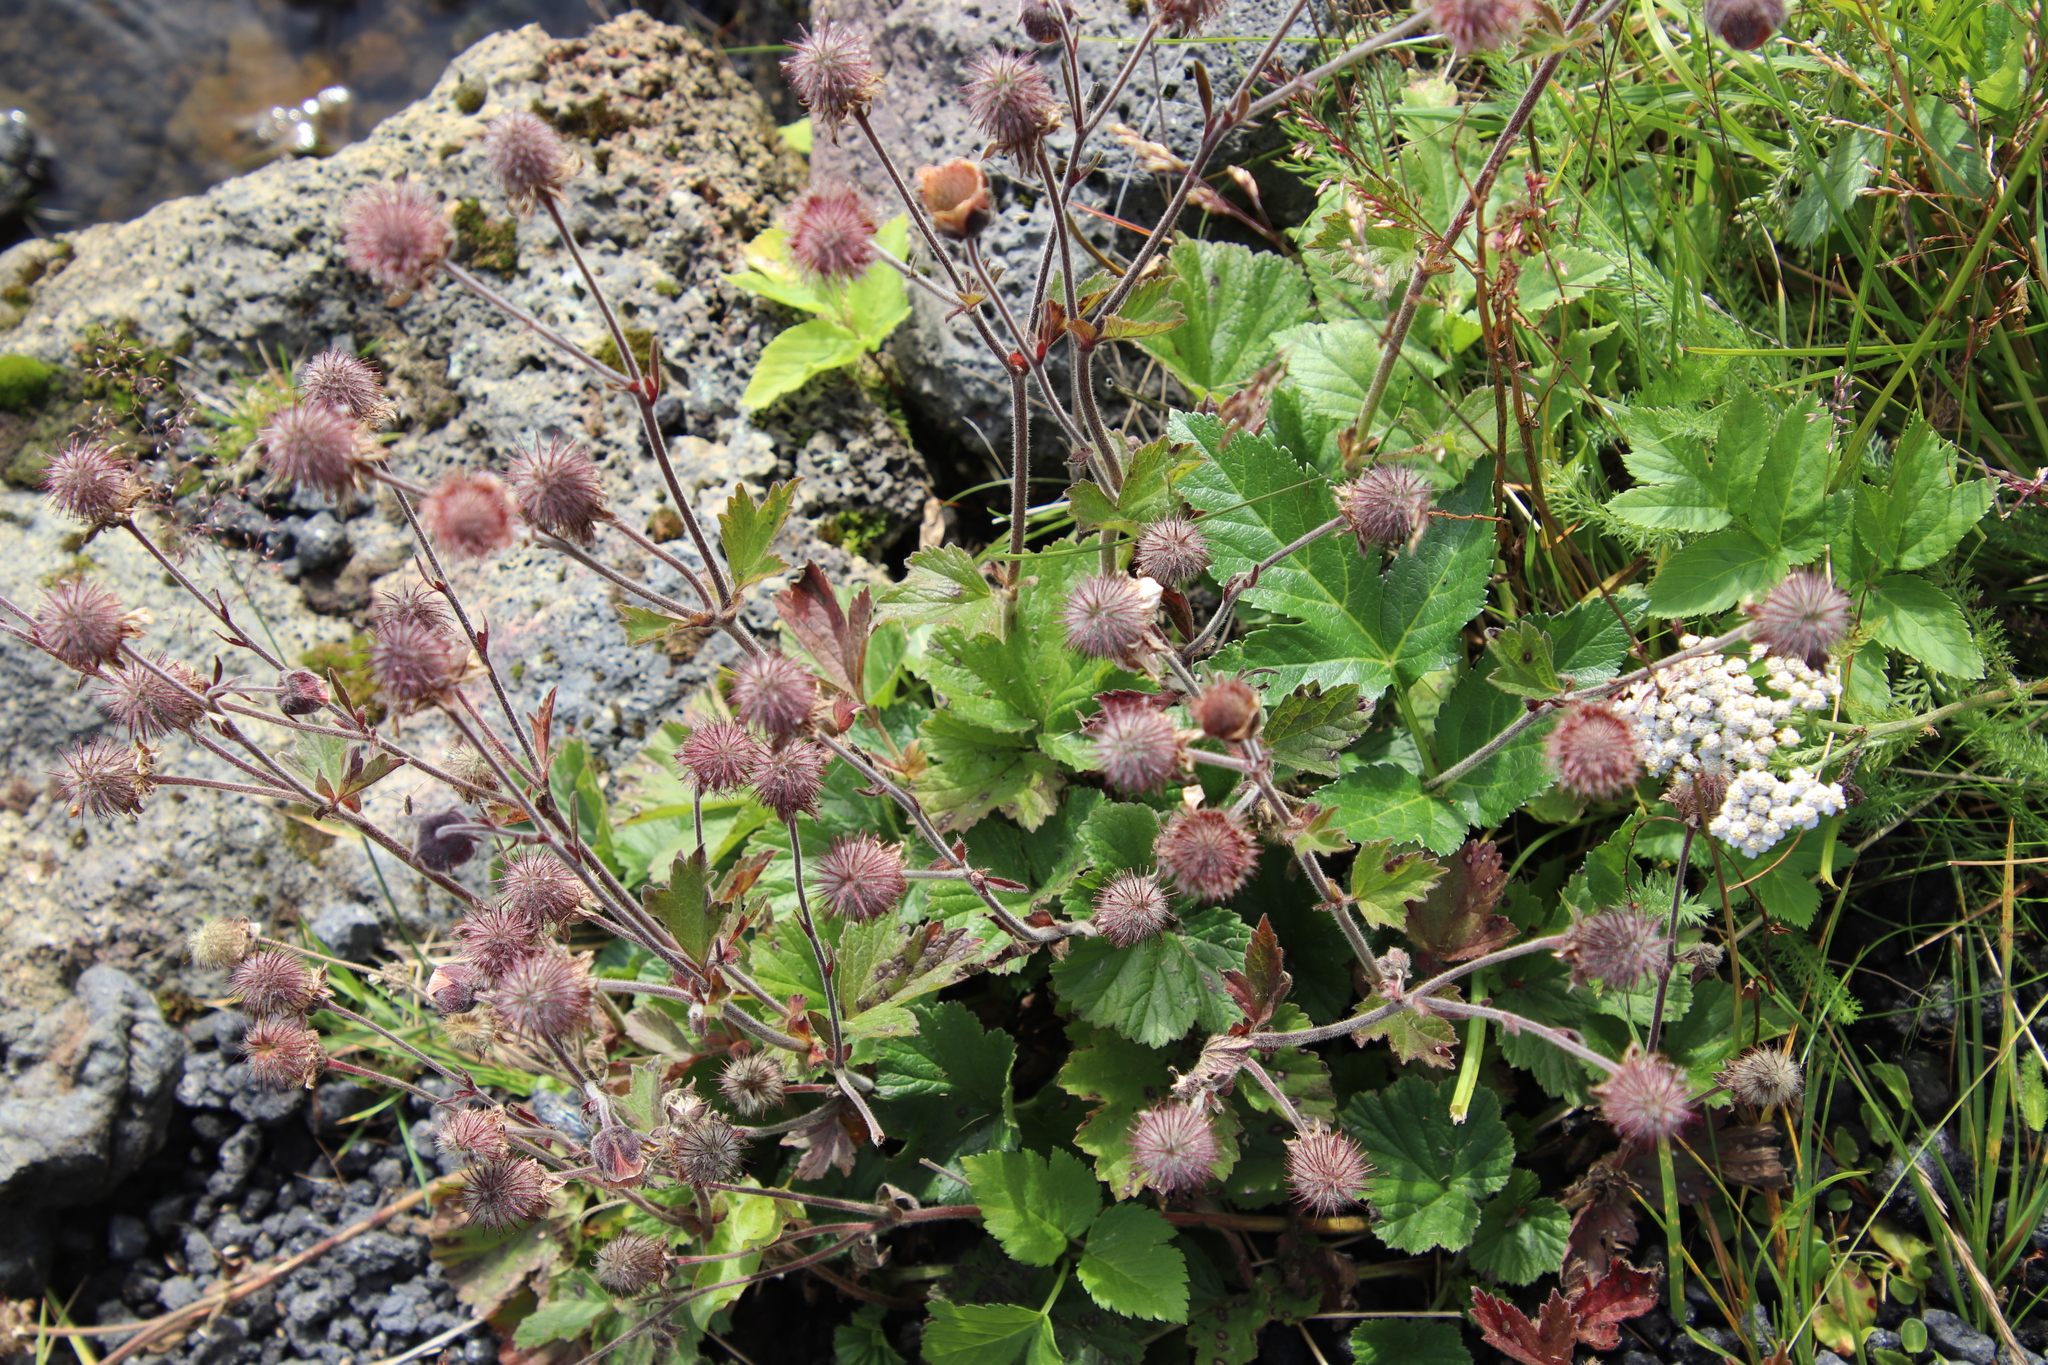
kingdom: Plantae
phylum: Tracheophyta
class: Magnoliopsida
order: Rosales
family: Rosaceae
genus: Geum
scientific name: Geum rivale
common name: Water avens
